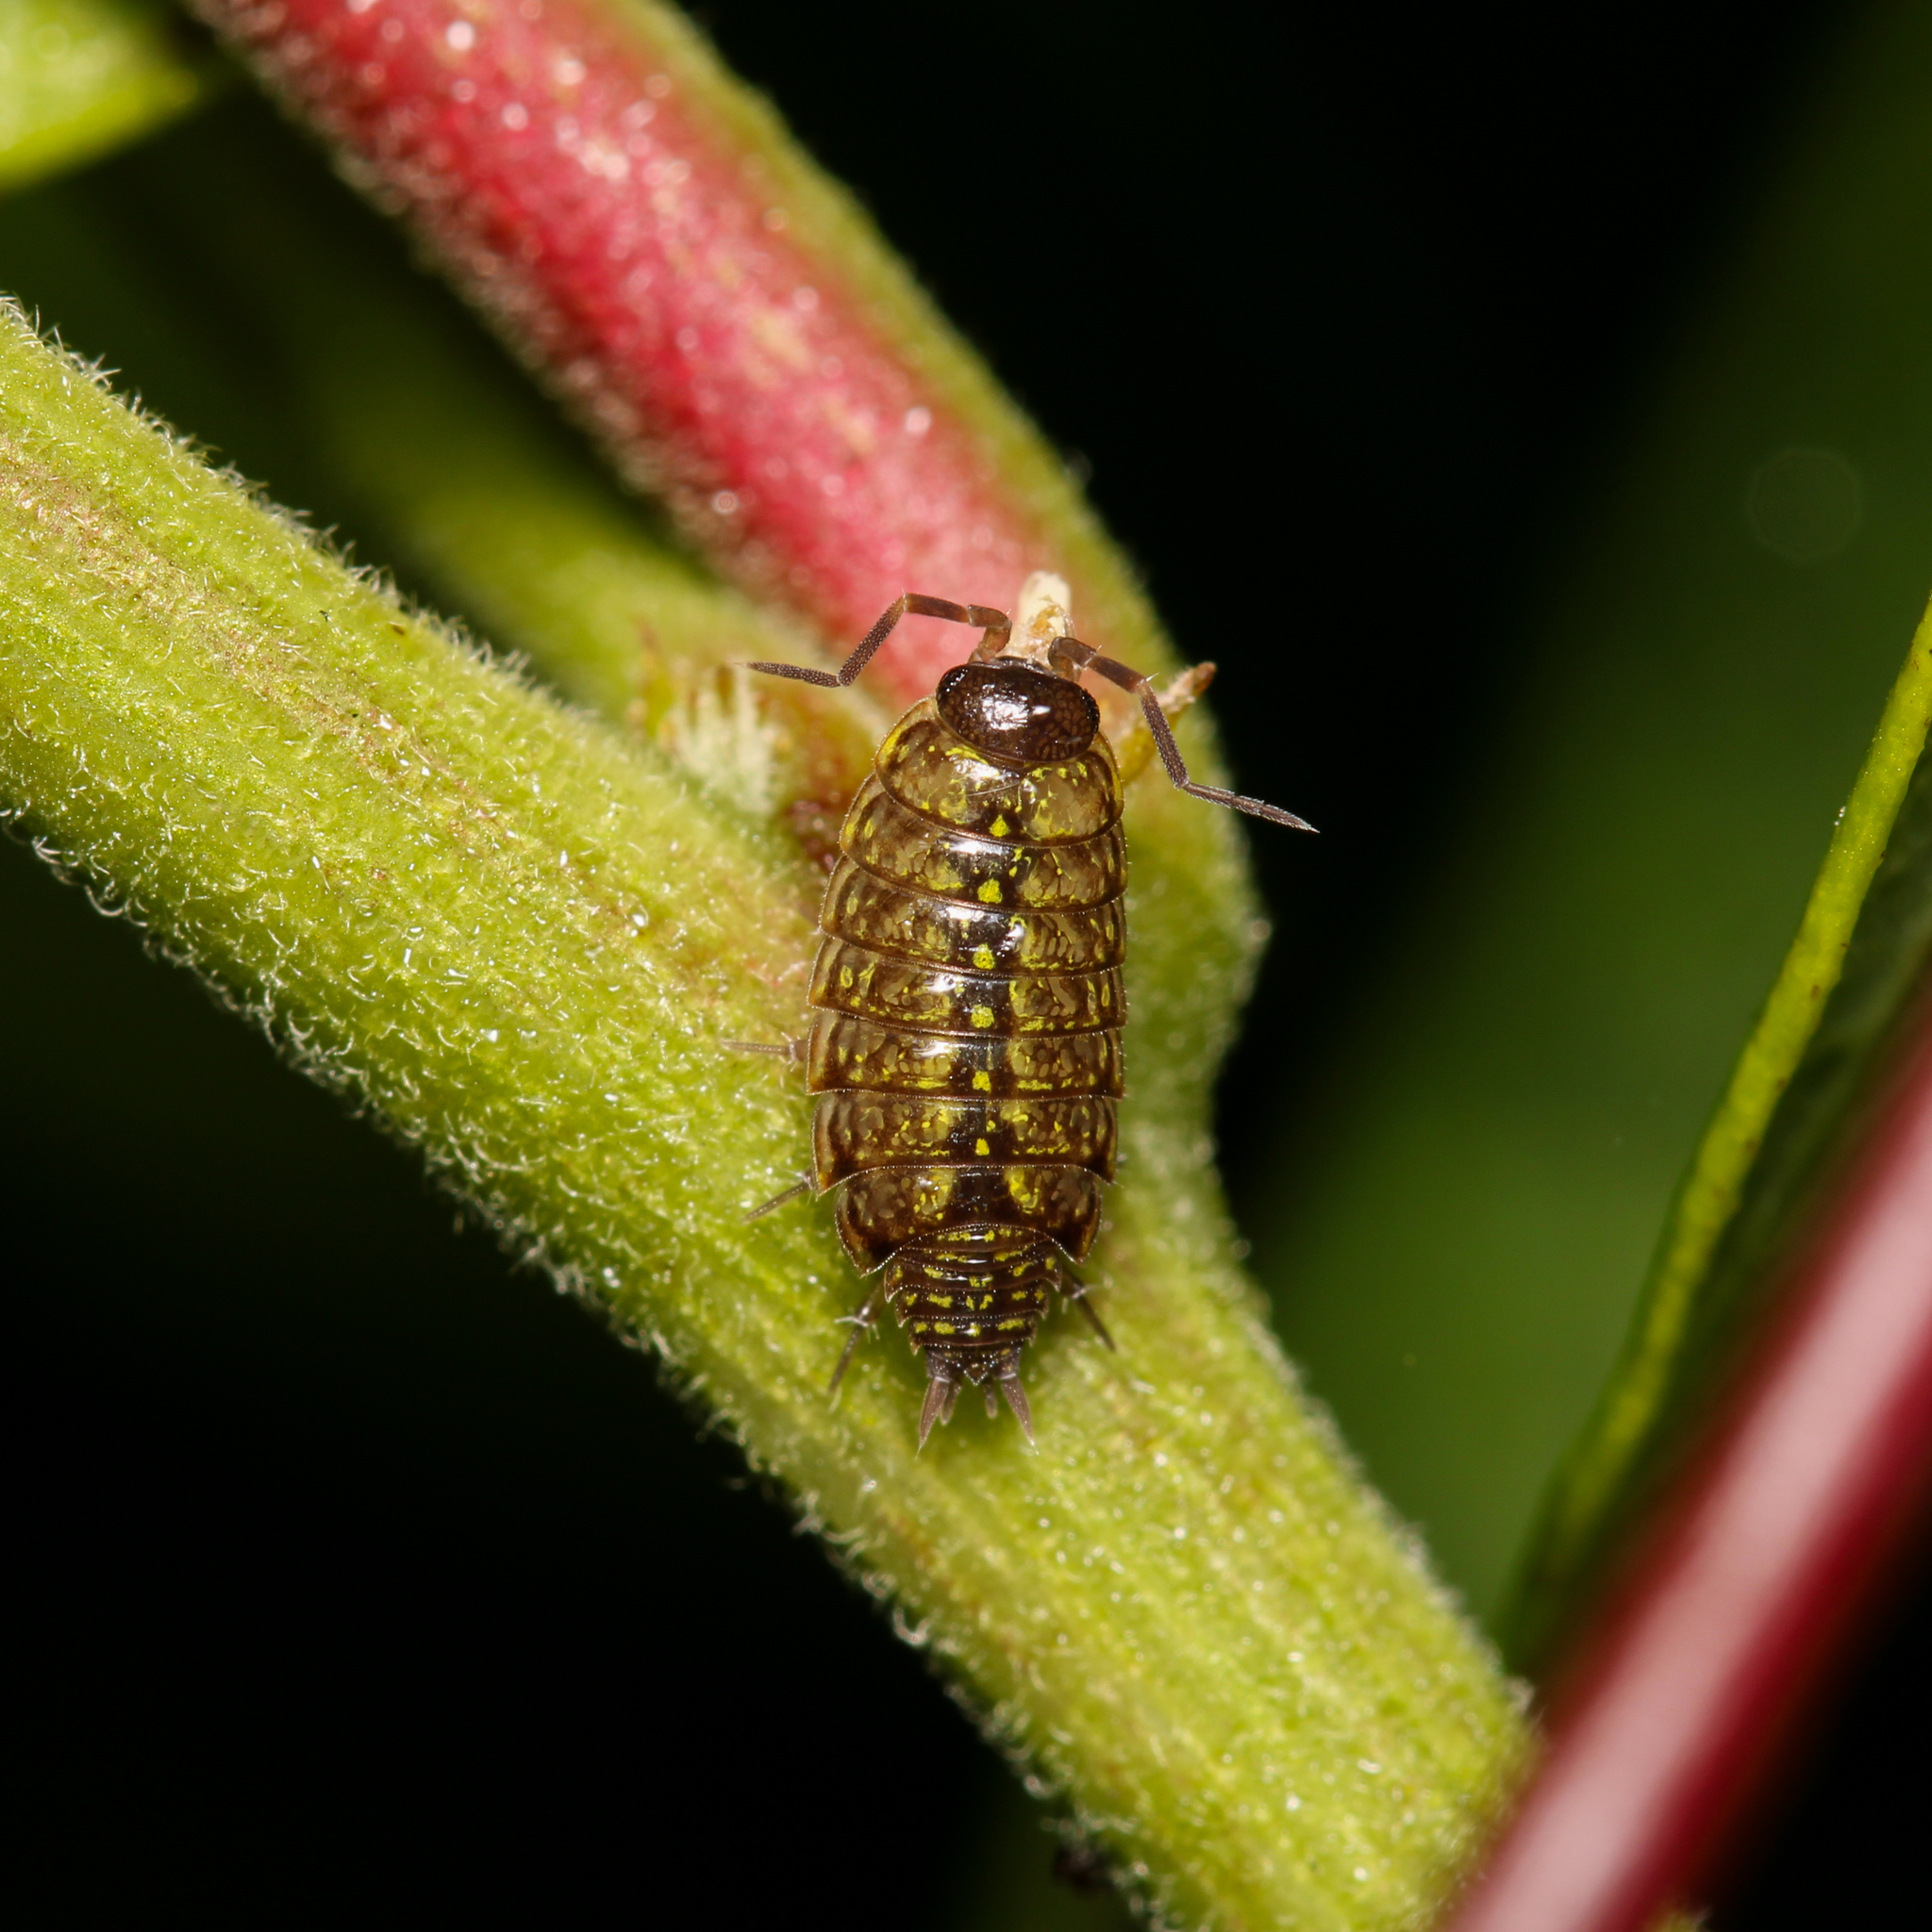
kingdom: Animalia
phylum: Arthropoda
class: Malacostraca
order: Isopoda
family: Philosciidae
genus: Philoscia
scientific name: Philoscia muscorum
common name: Common striped woodlouse
